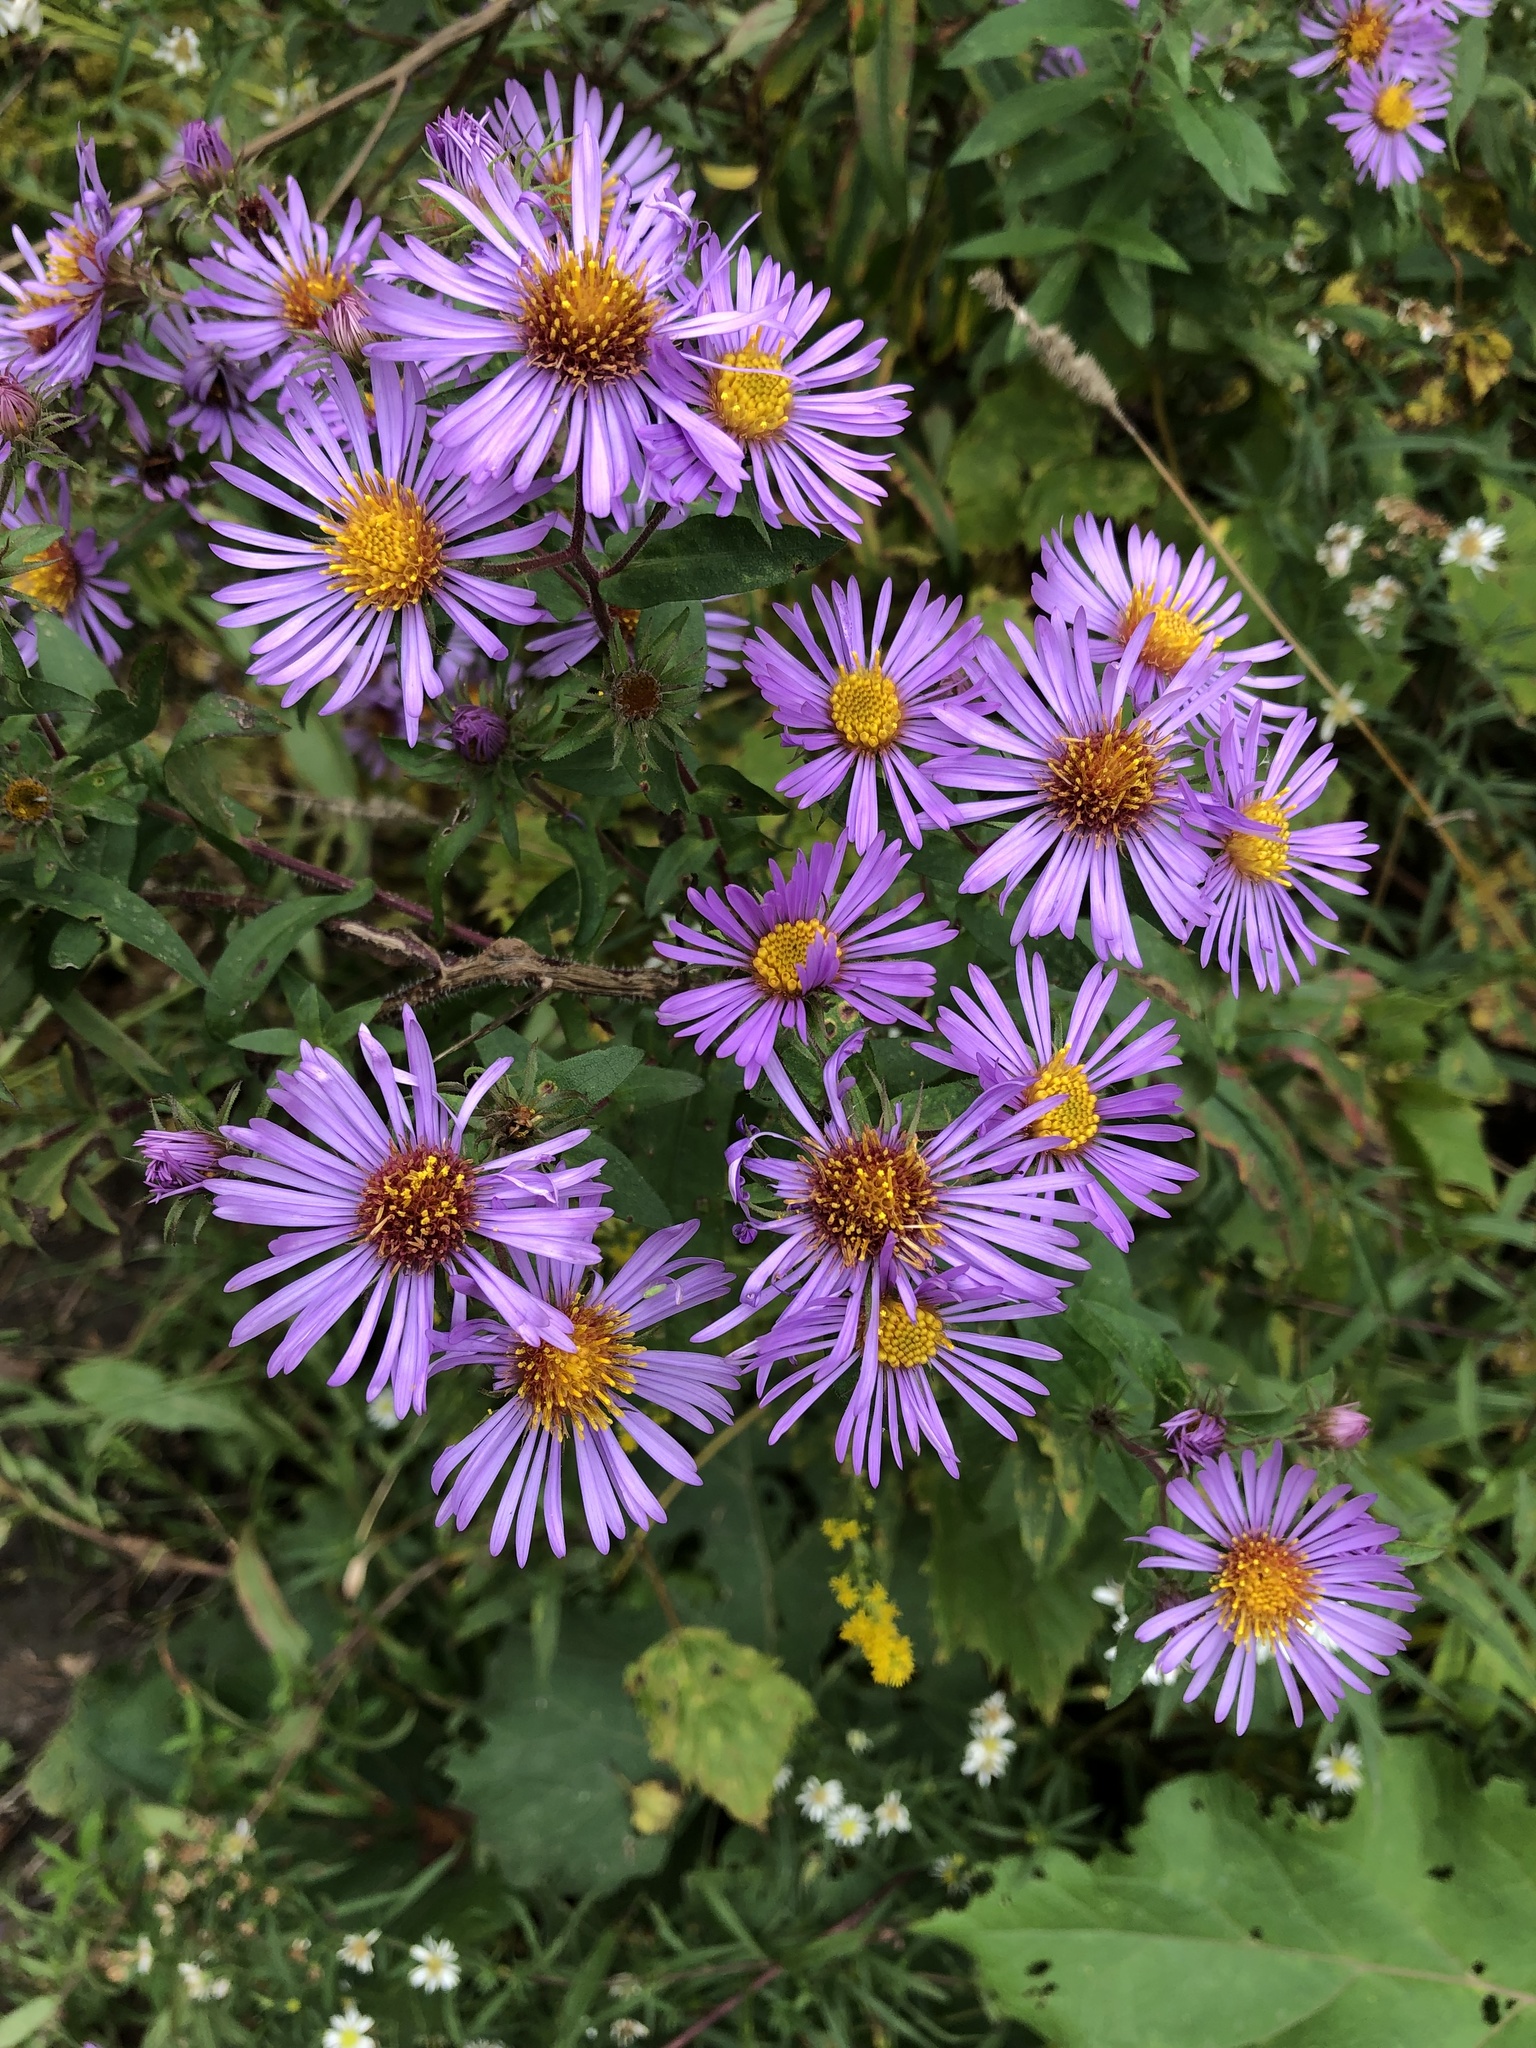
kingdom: Plantae
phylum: Tracheophyta
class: Magnoliopsida
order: Asterales
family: Asteraceae
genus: Symphyotrichum
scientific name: Symphyotrichum novae-angliae
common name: Michaelmas daisy
